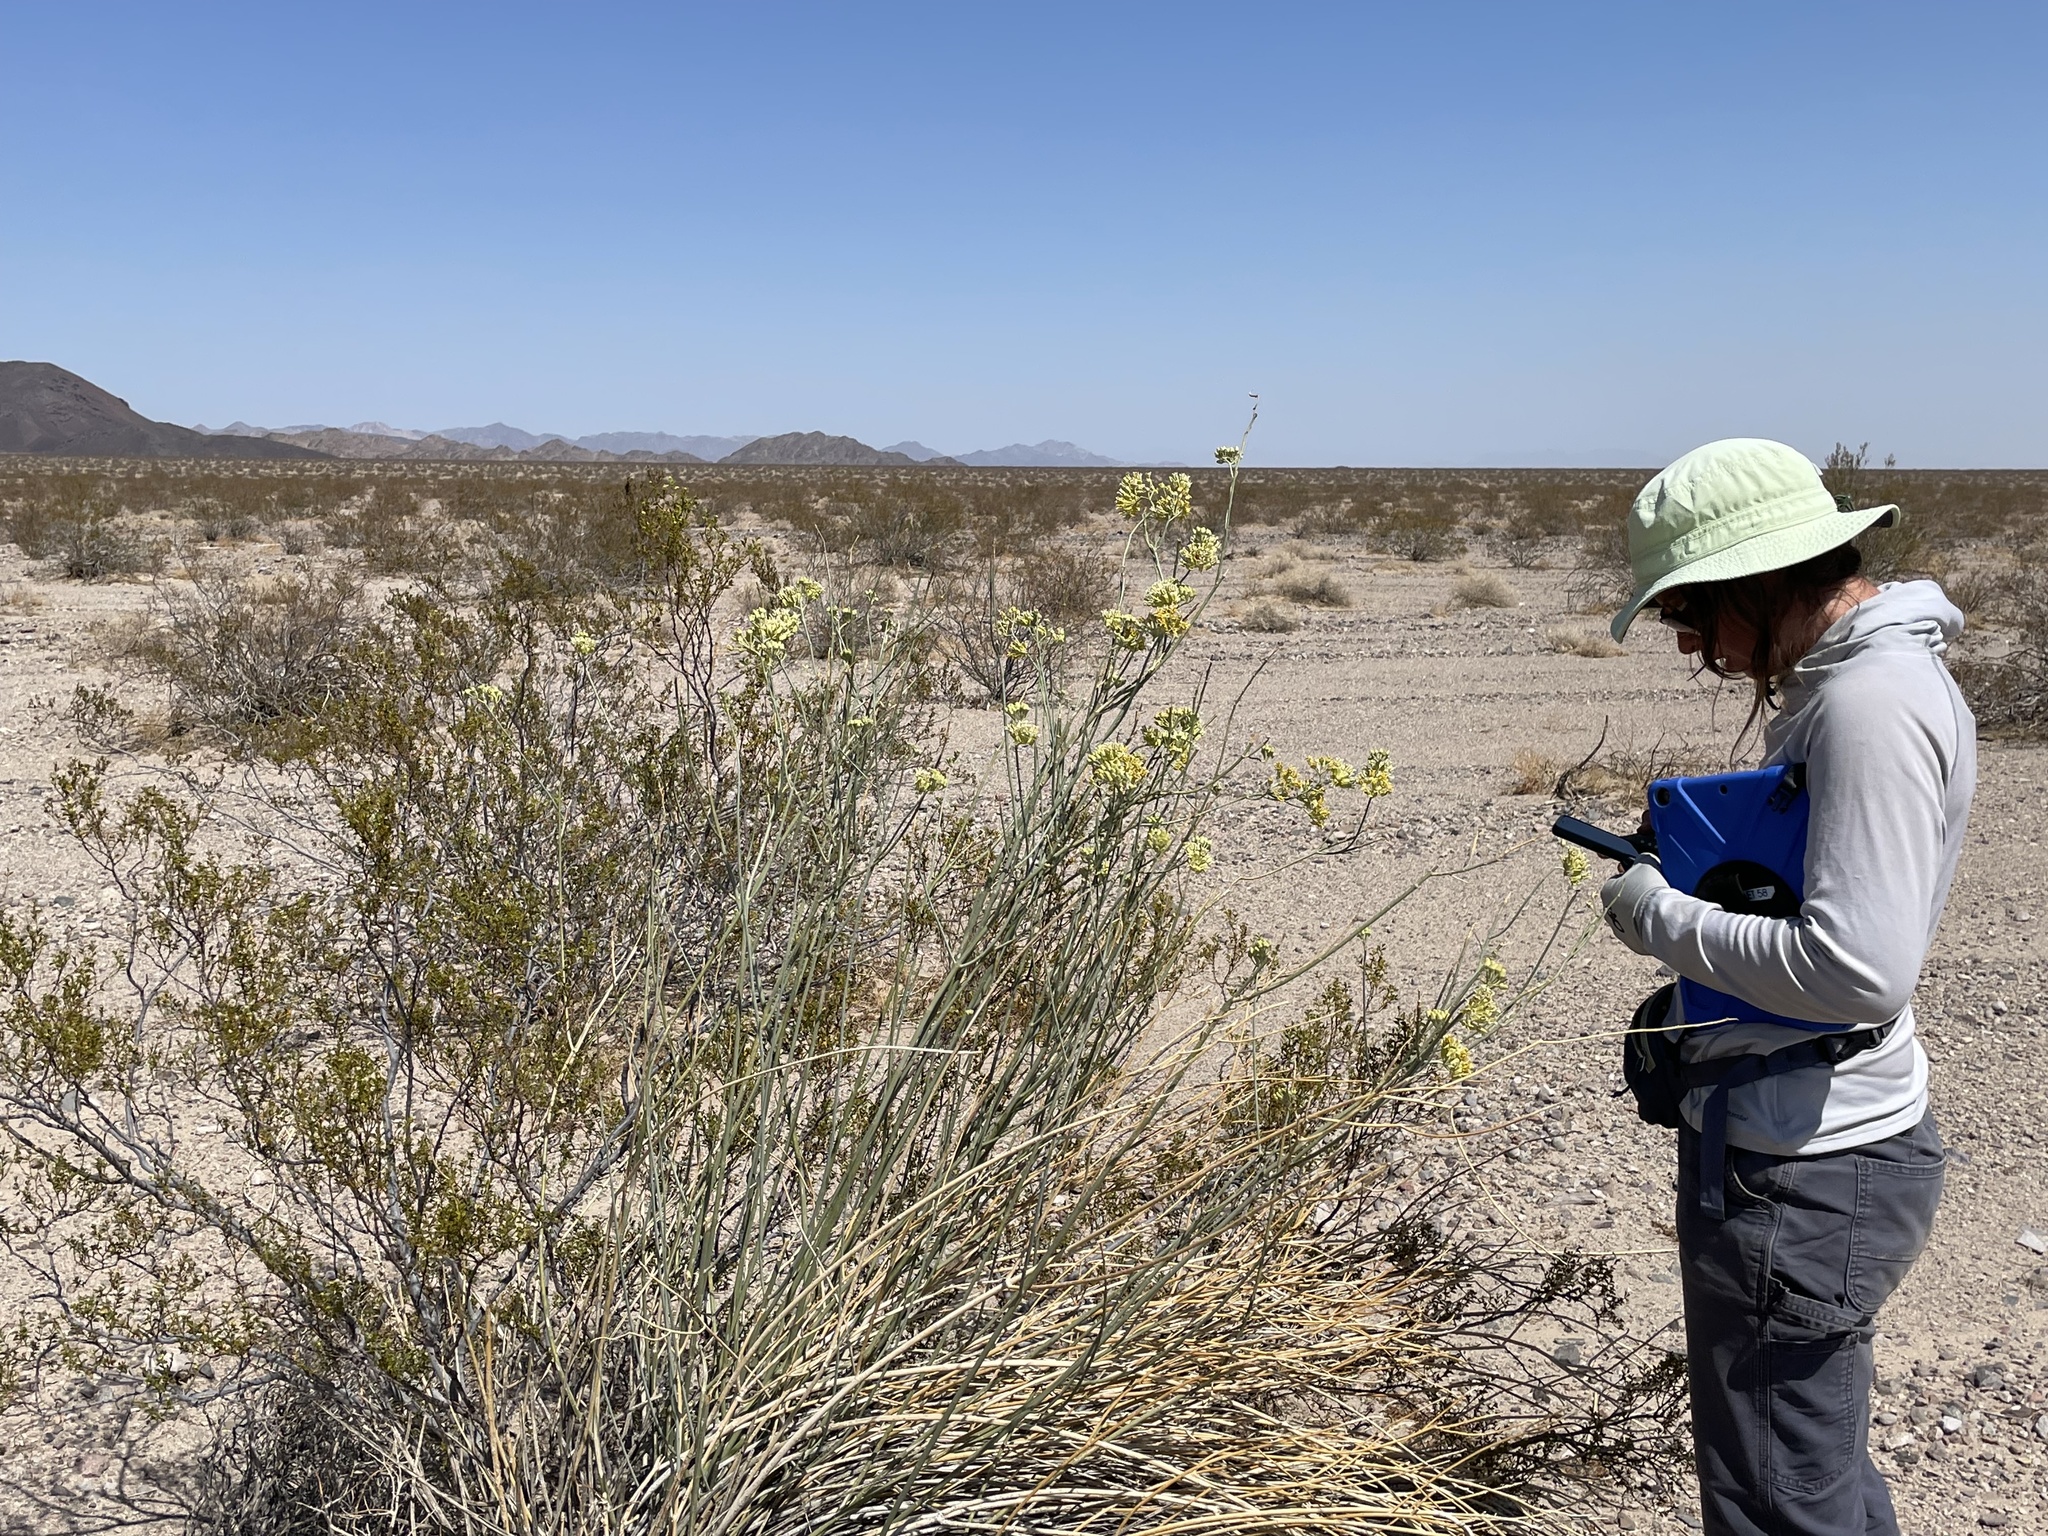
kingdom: Plantae
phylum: Tracheophyta
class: Magnoliopsida
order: Gentianales
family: Apocynaceae
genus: Asclepias
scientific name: Asclepias subulata
